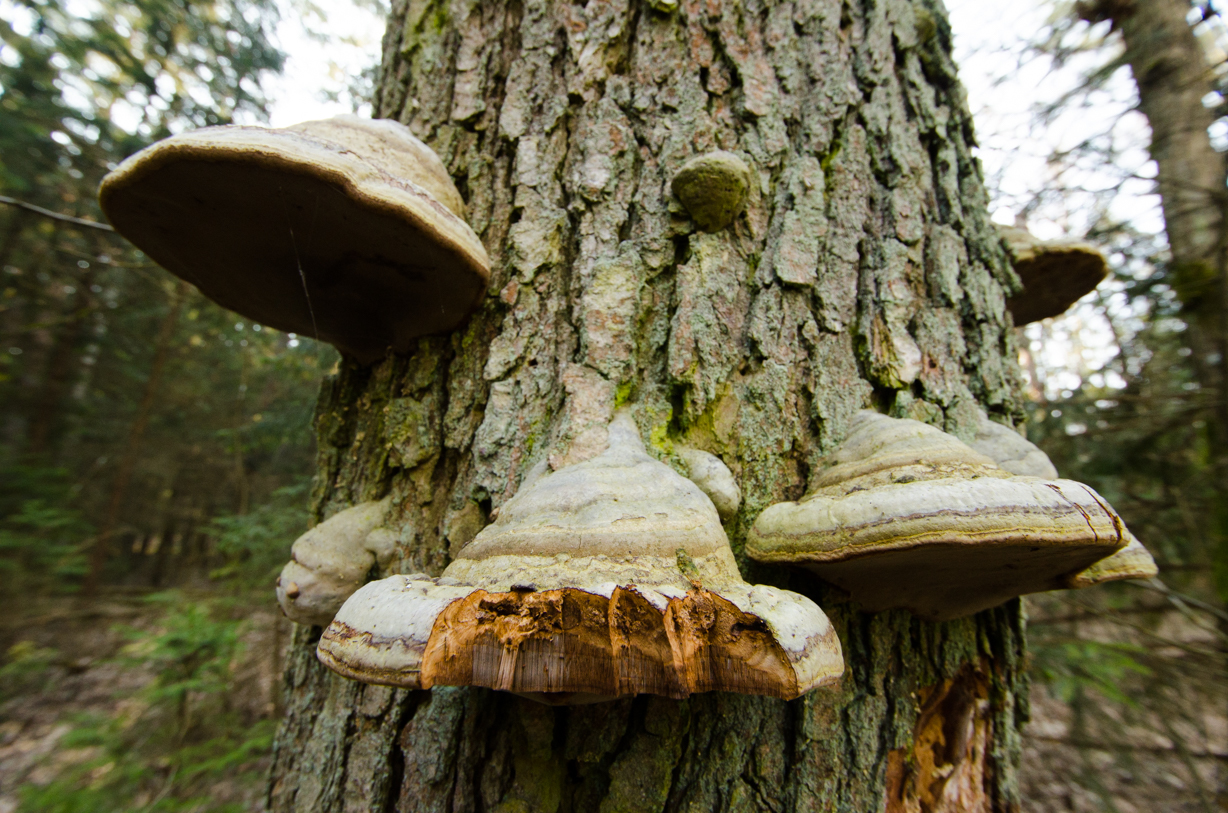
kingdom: Fungi
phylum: Basidiomycota
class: Agaricomycetes
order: Polyporales
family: Polyporaceae
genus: Fomes
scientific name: Fomes fomentarius
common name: Hoof fungus
